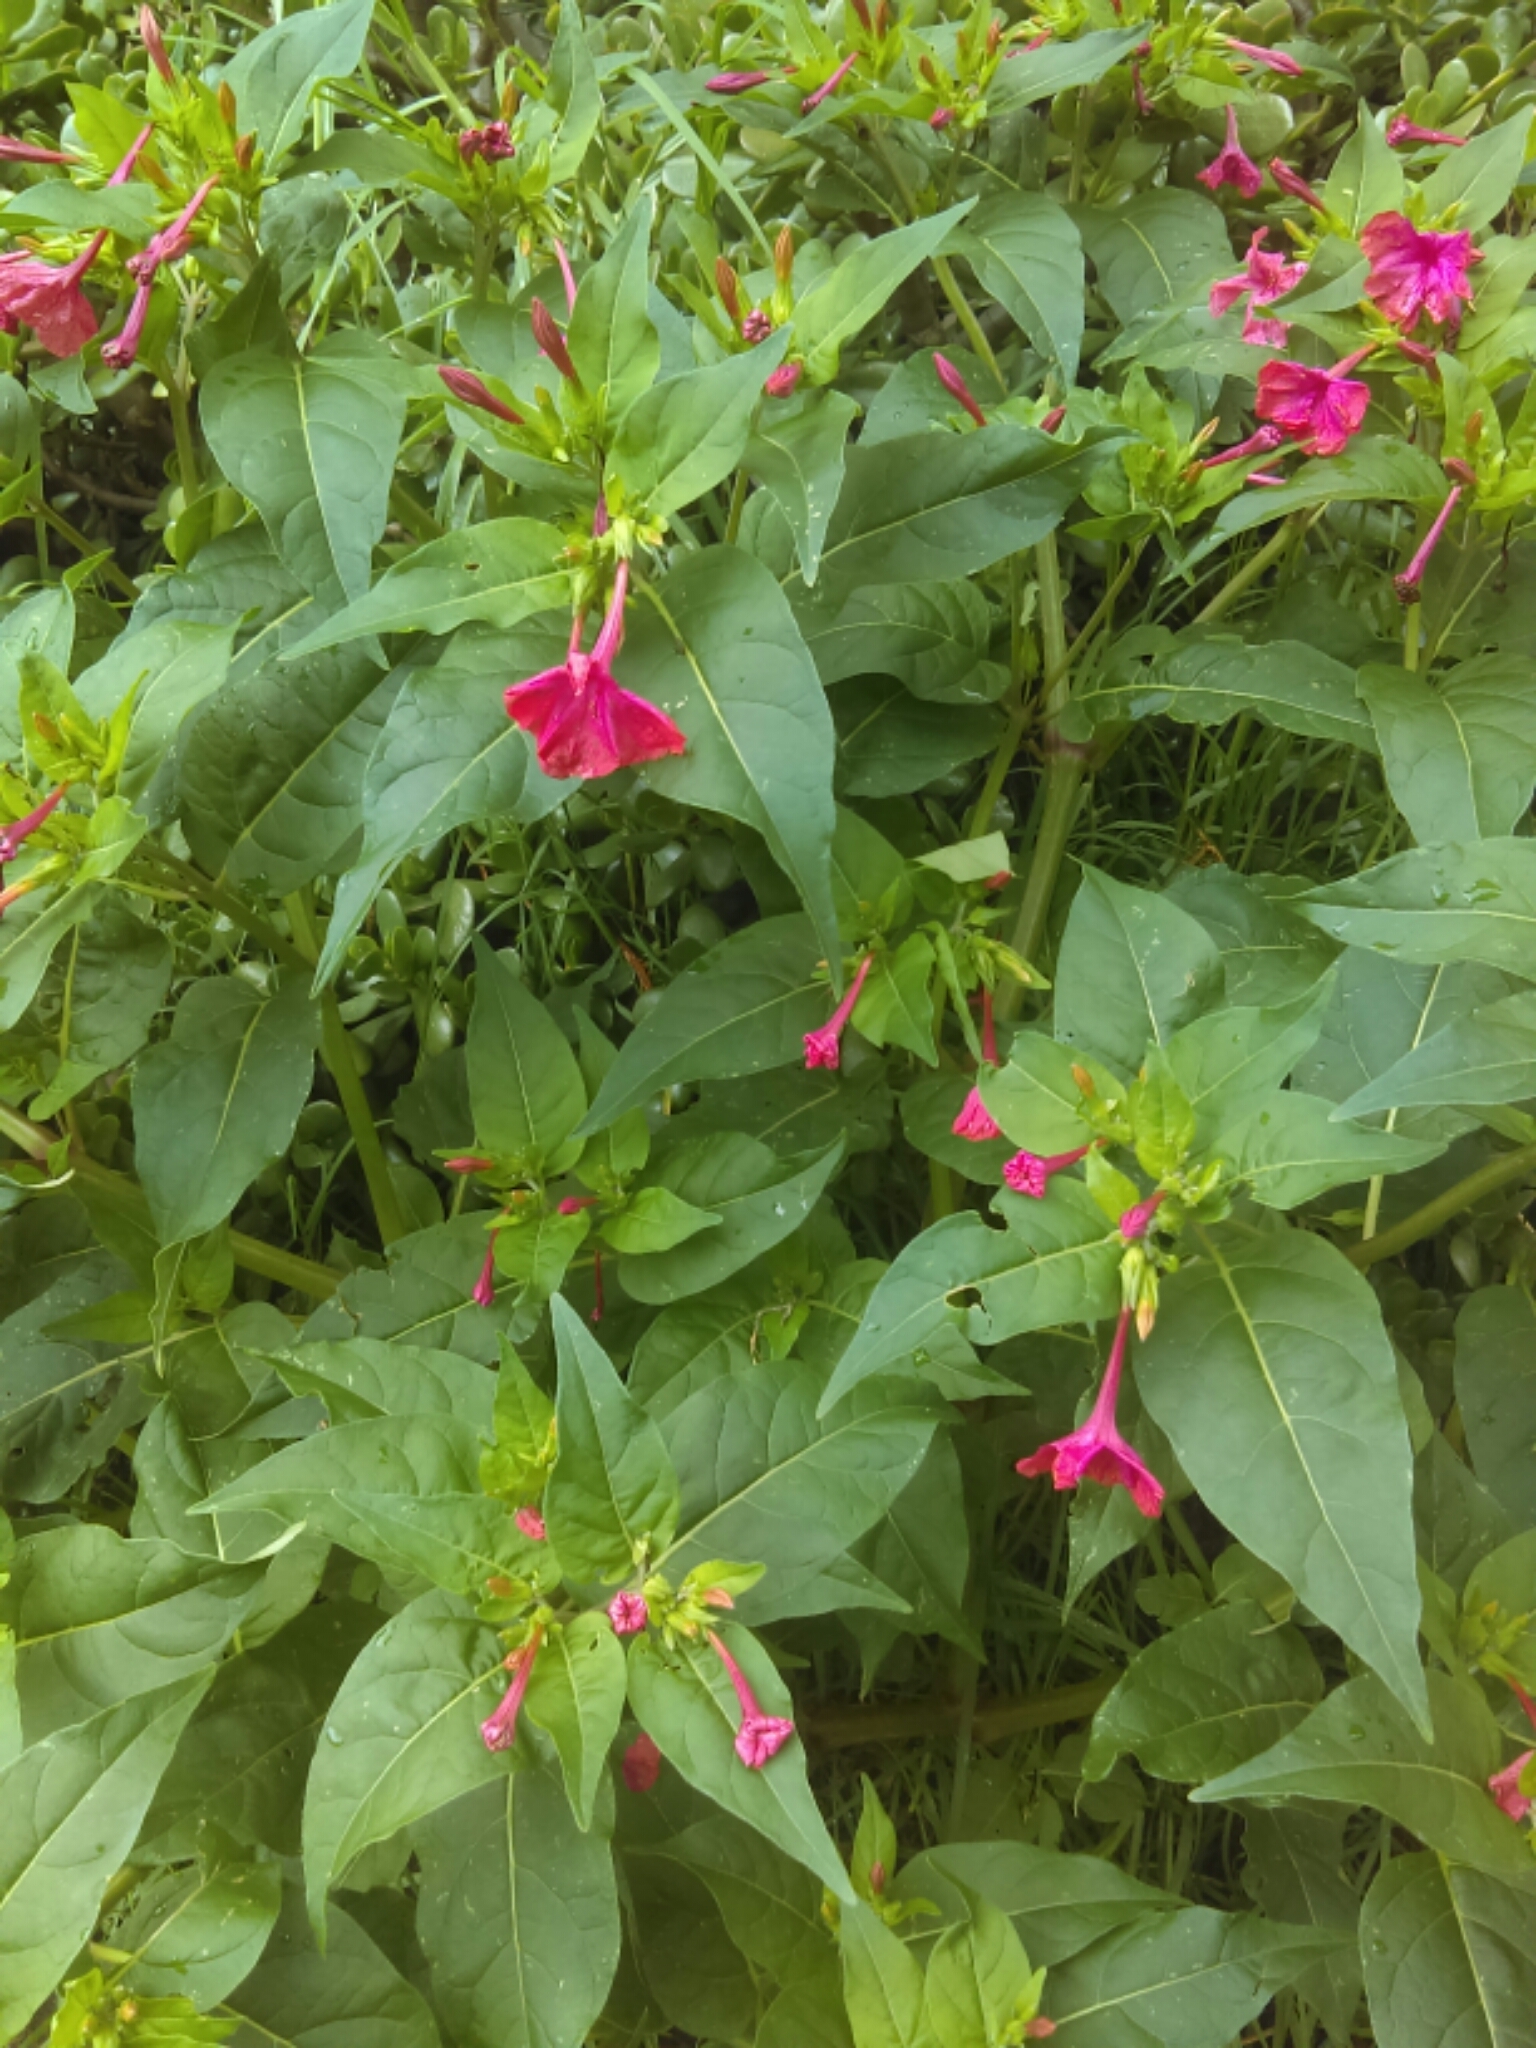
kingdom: Plantae
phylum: Tracheophyta
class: Magnoliopsida
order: Caryophyllales
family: Nyctaginaceae
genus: Mirabilis
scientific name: Mirabilis jalapa
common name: Marvel-of-peru
